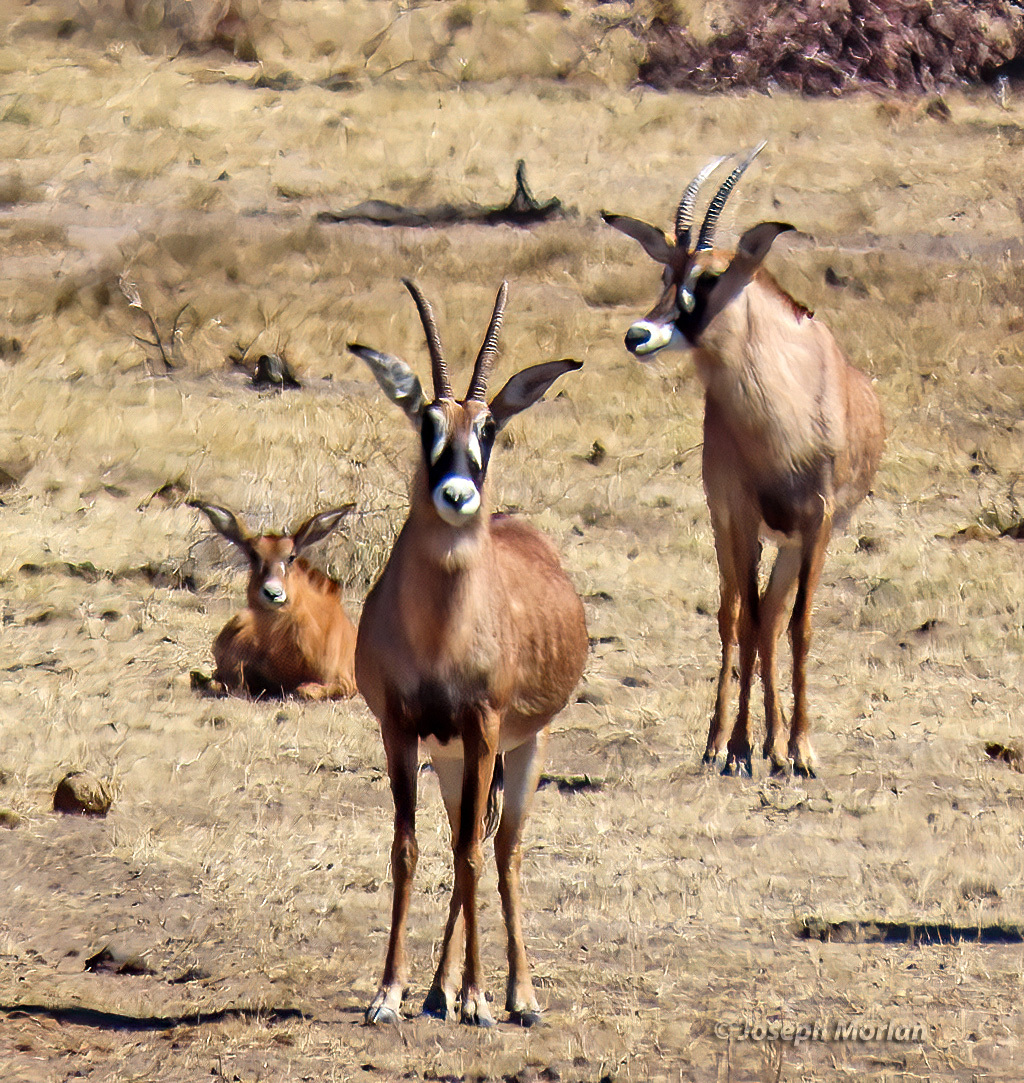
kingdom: Animalia
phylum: Chordata
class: Mammalia
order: Artiodactyla
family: Bovidae
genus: Hippotragus
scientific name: Hippotragus equinus
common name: Roan antelope
